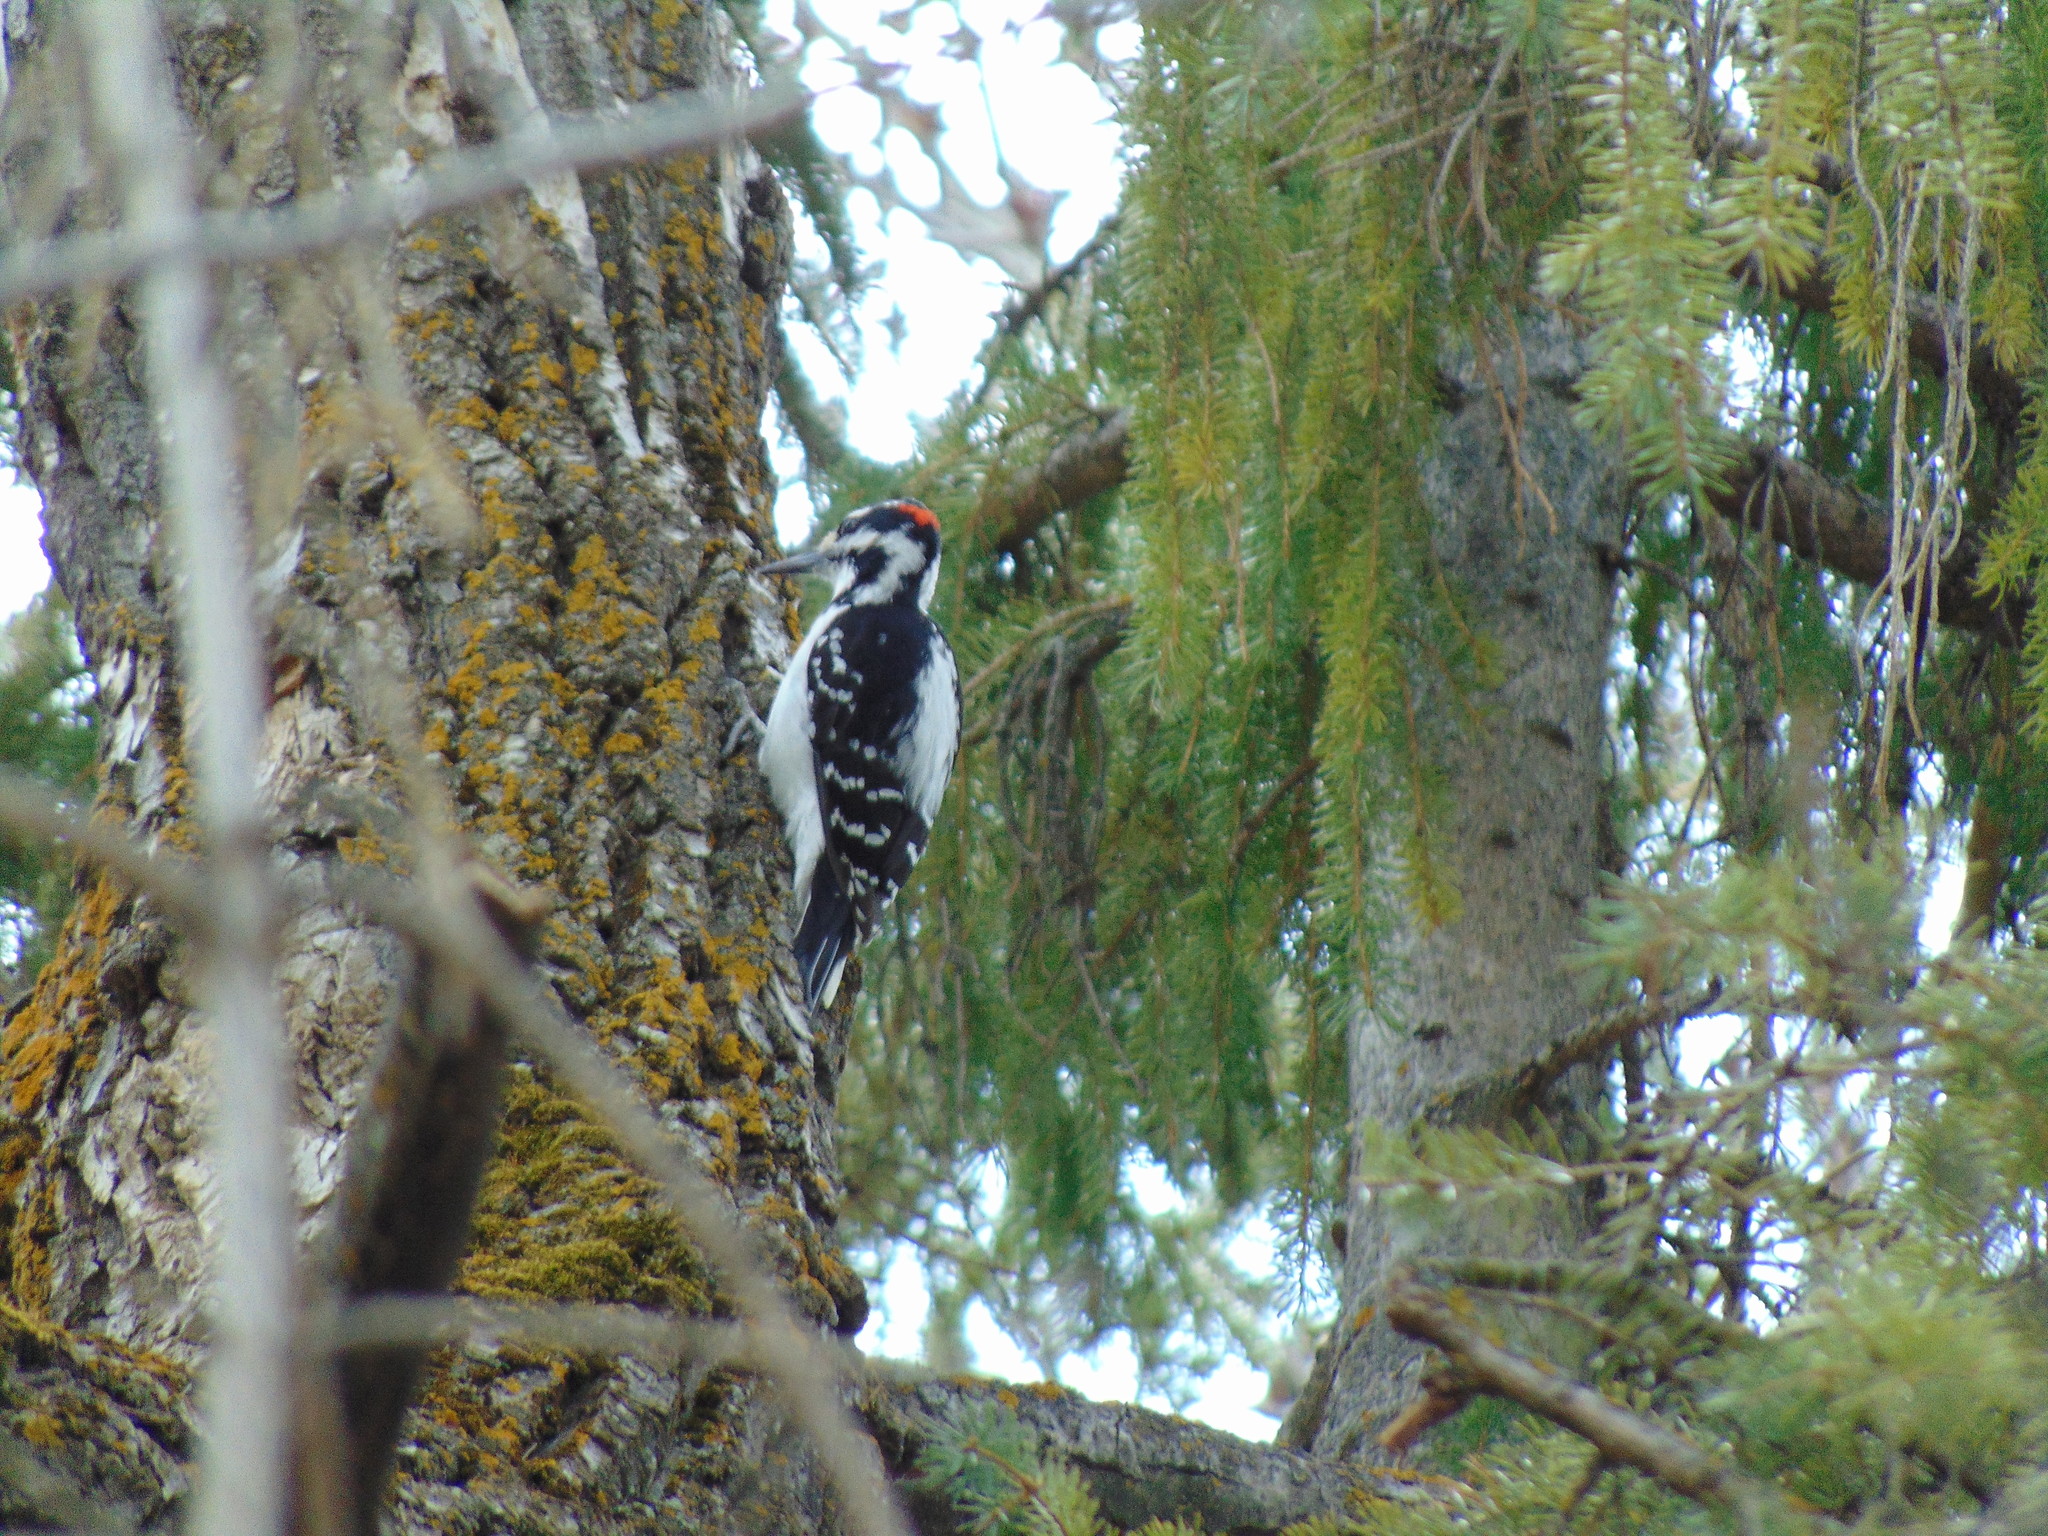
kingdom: Animalia
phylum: Chordata
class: Aves
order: Piciformes
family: Picidae
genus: Leuconotopicus
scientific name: Leuconotopicus villosus
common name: Hairy woodpecker
